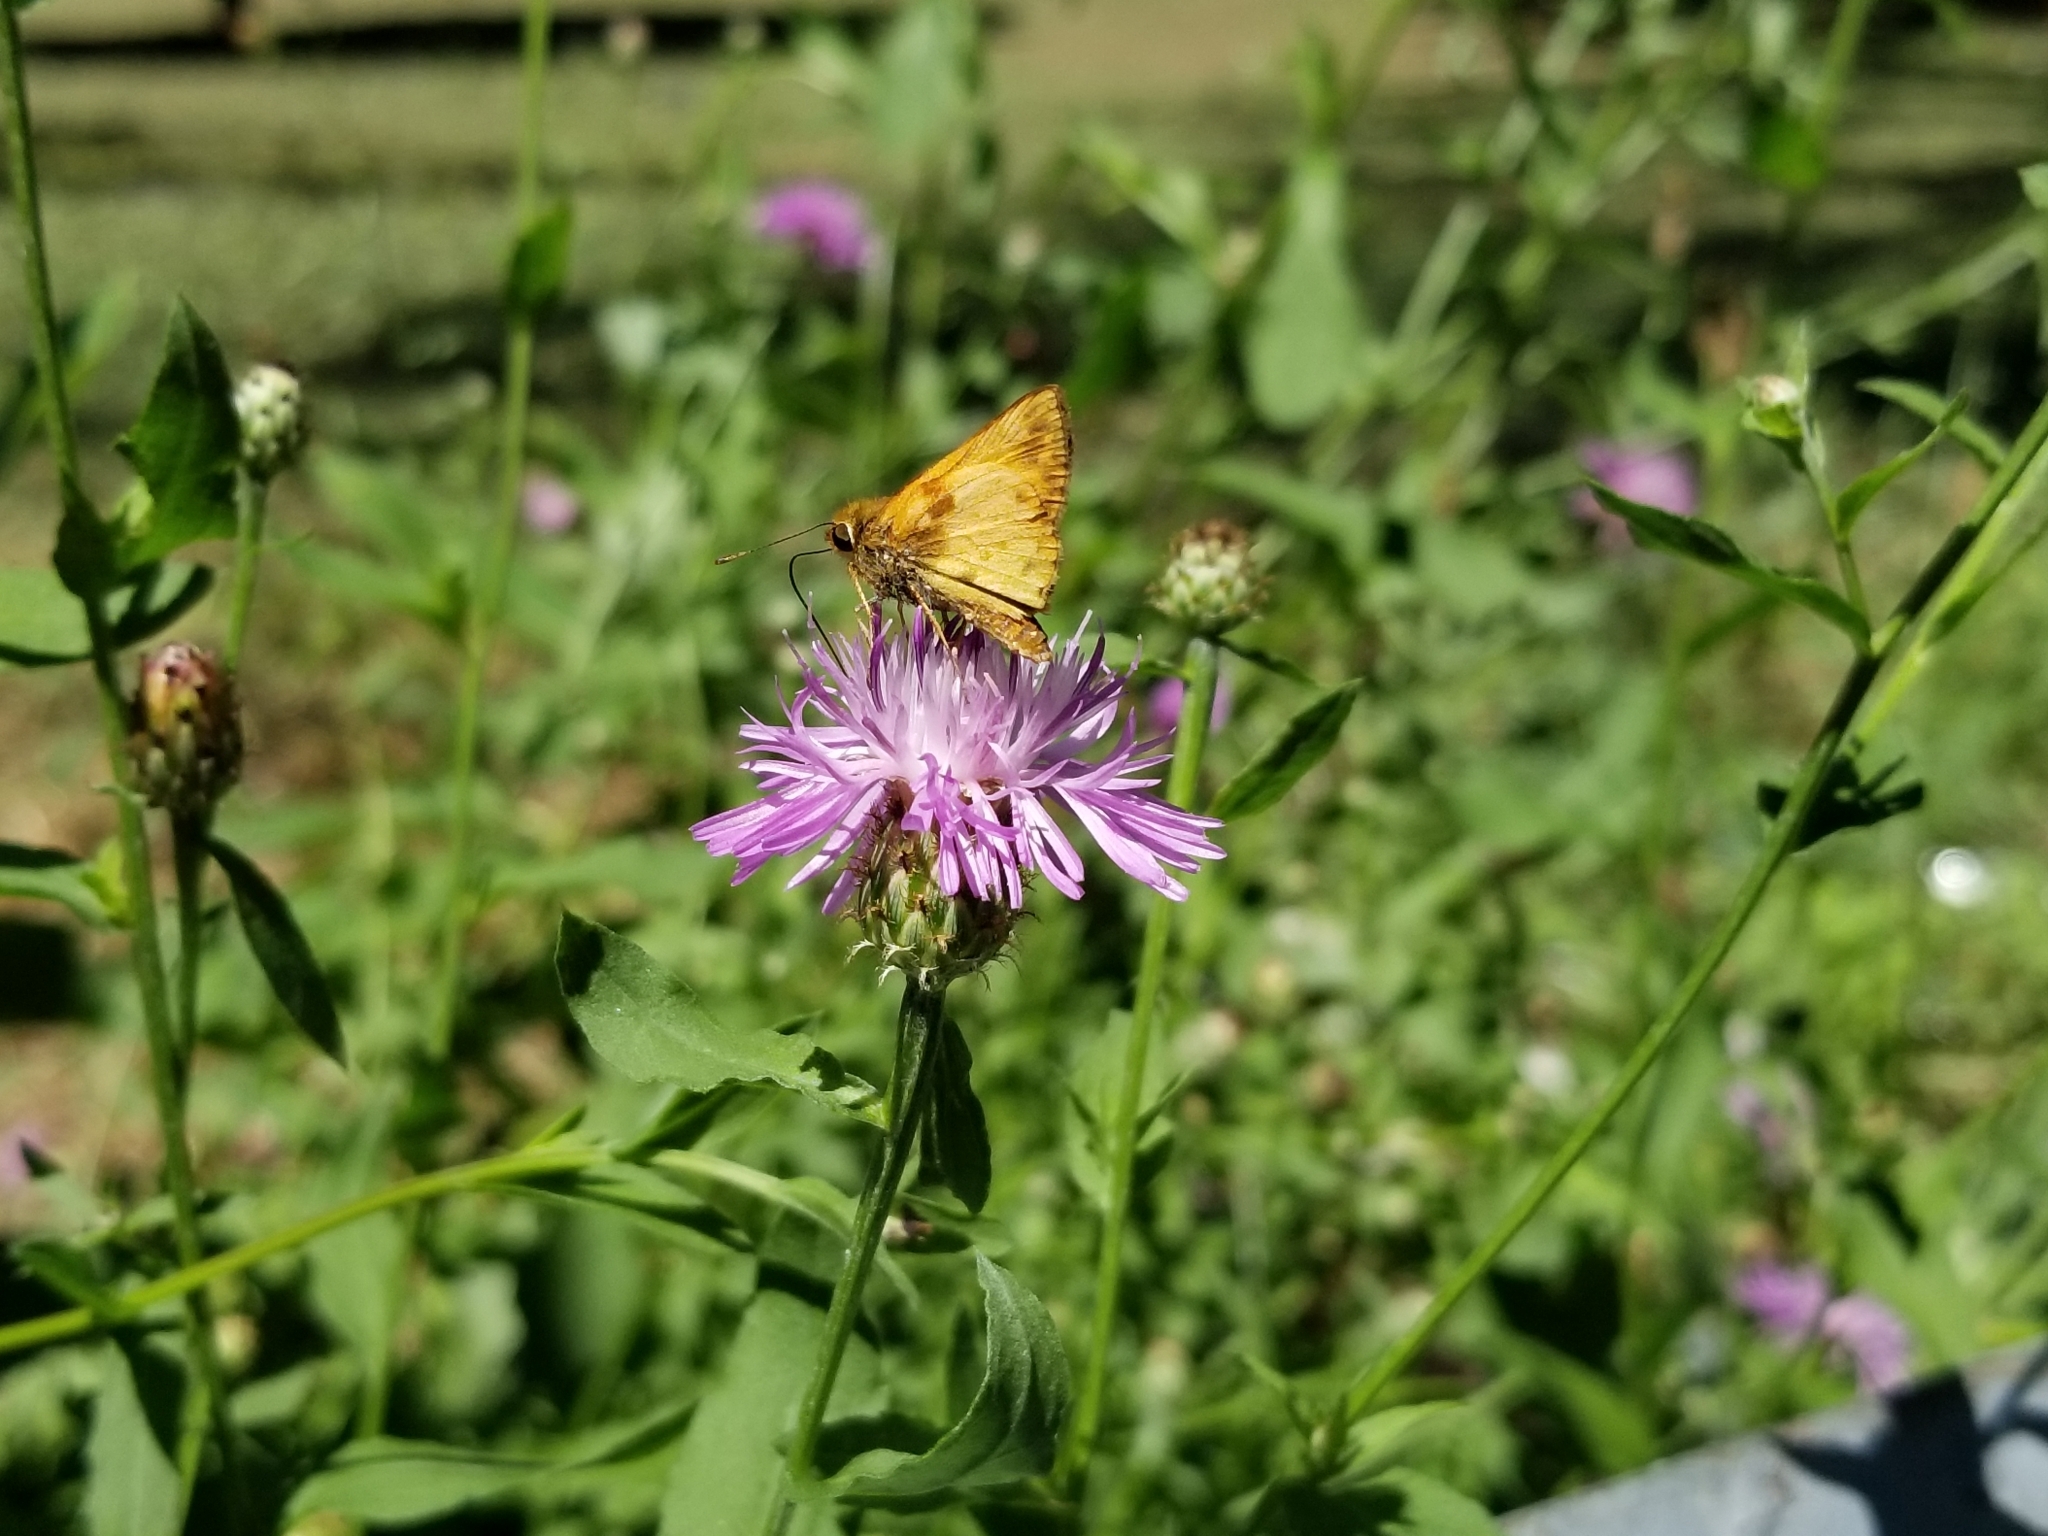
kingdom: Animalia
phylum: Arthropoda
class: Insecta
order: Lepidoptera
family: Hesperiidae
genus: Lon
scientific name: Lon zabulon
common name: Zabulon skipper
